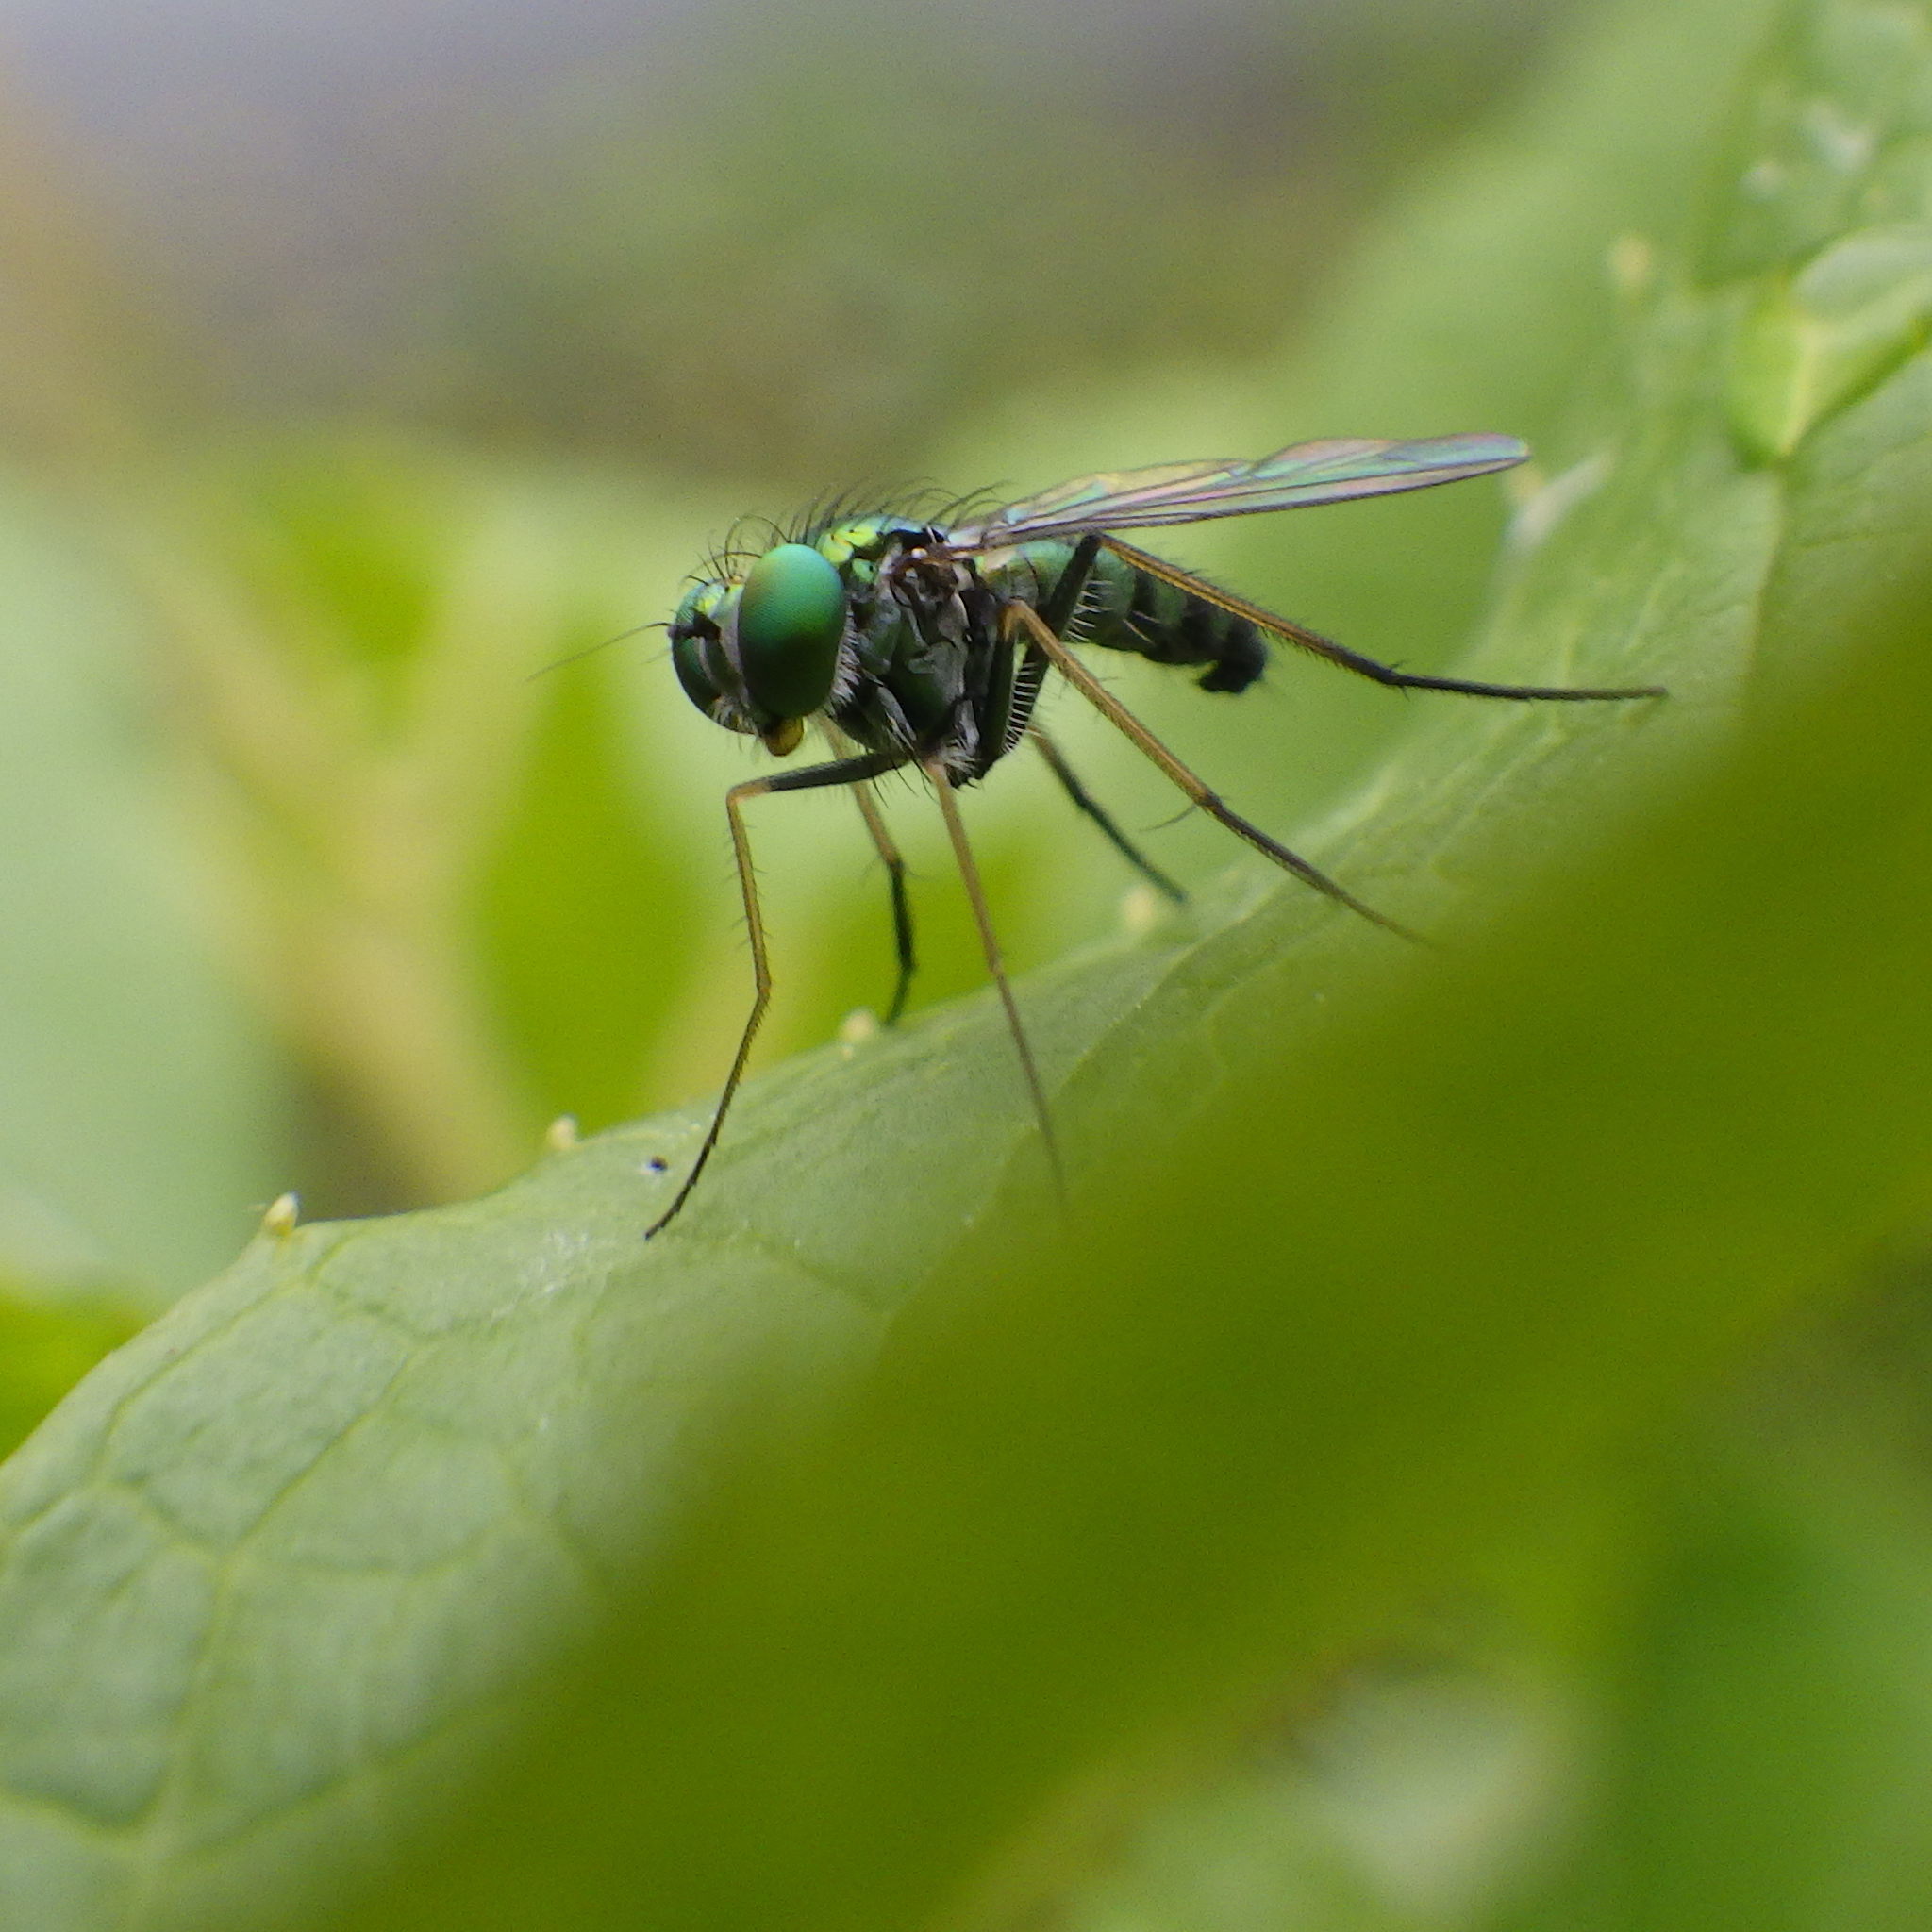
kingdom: Animalia
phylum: Arthropoda
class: Insecta
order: Diptera
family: Dolichopodidae
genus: Condylostylus
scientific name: Condylostylus nigrofemoratus
